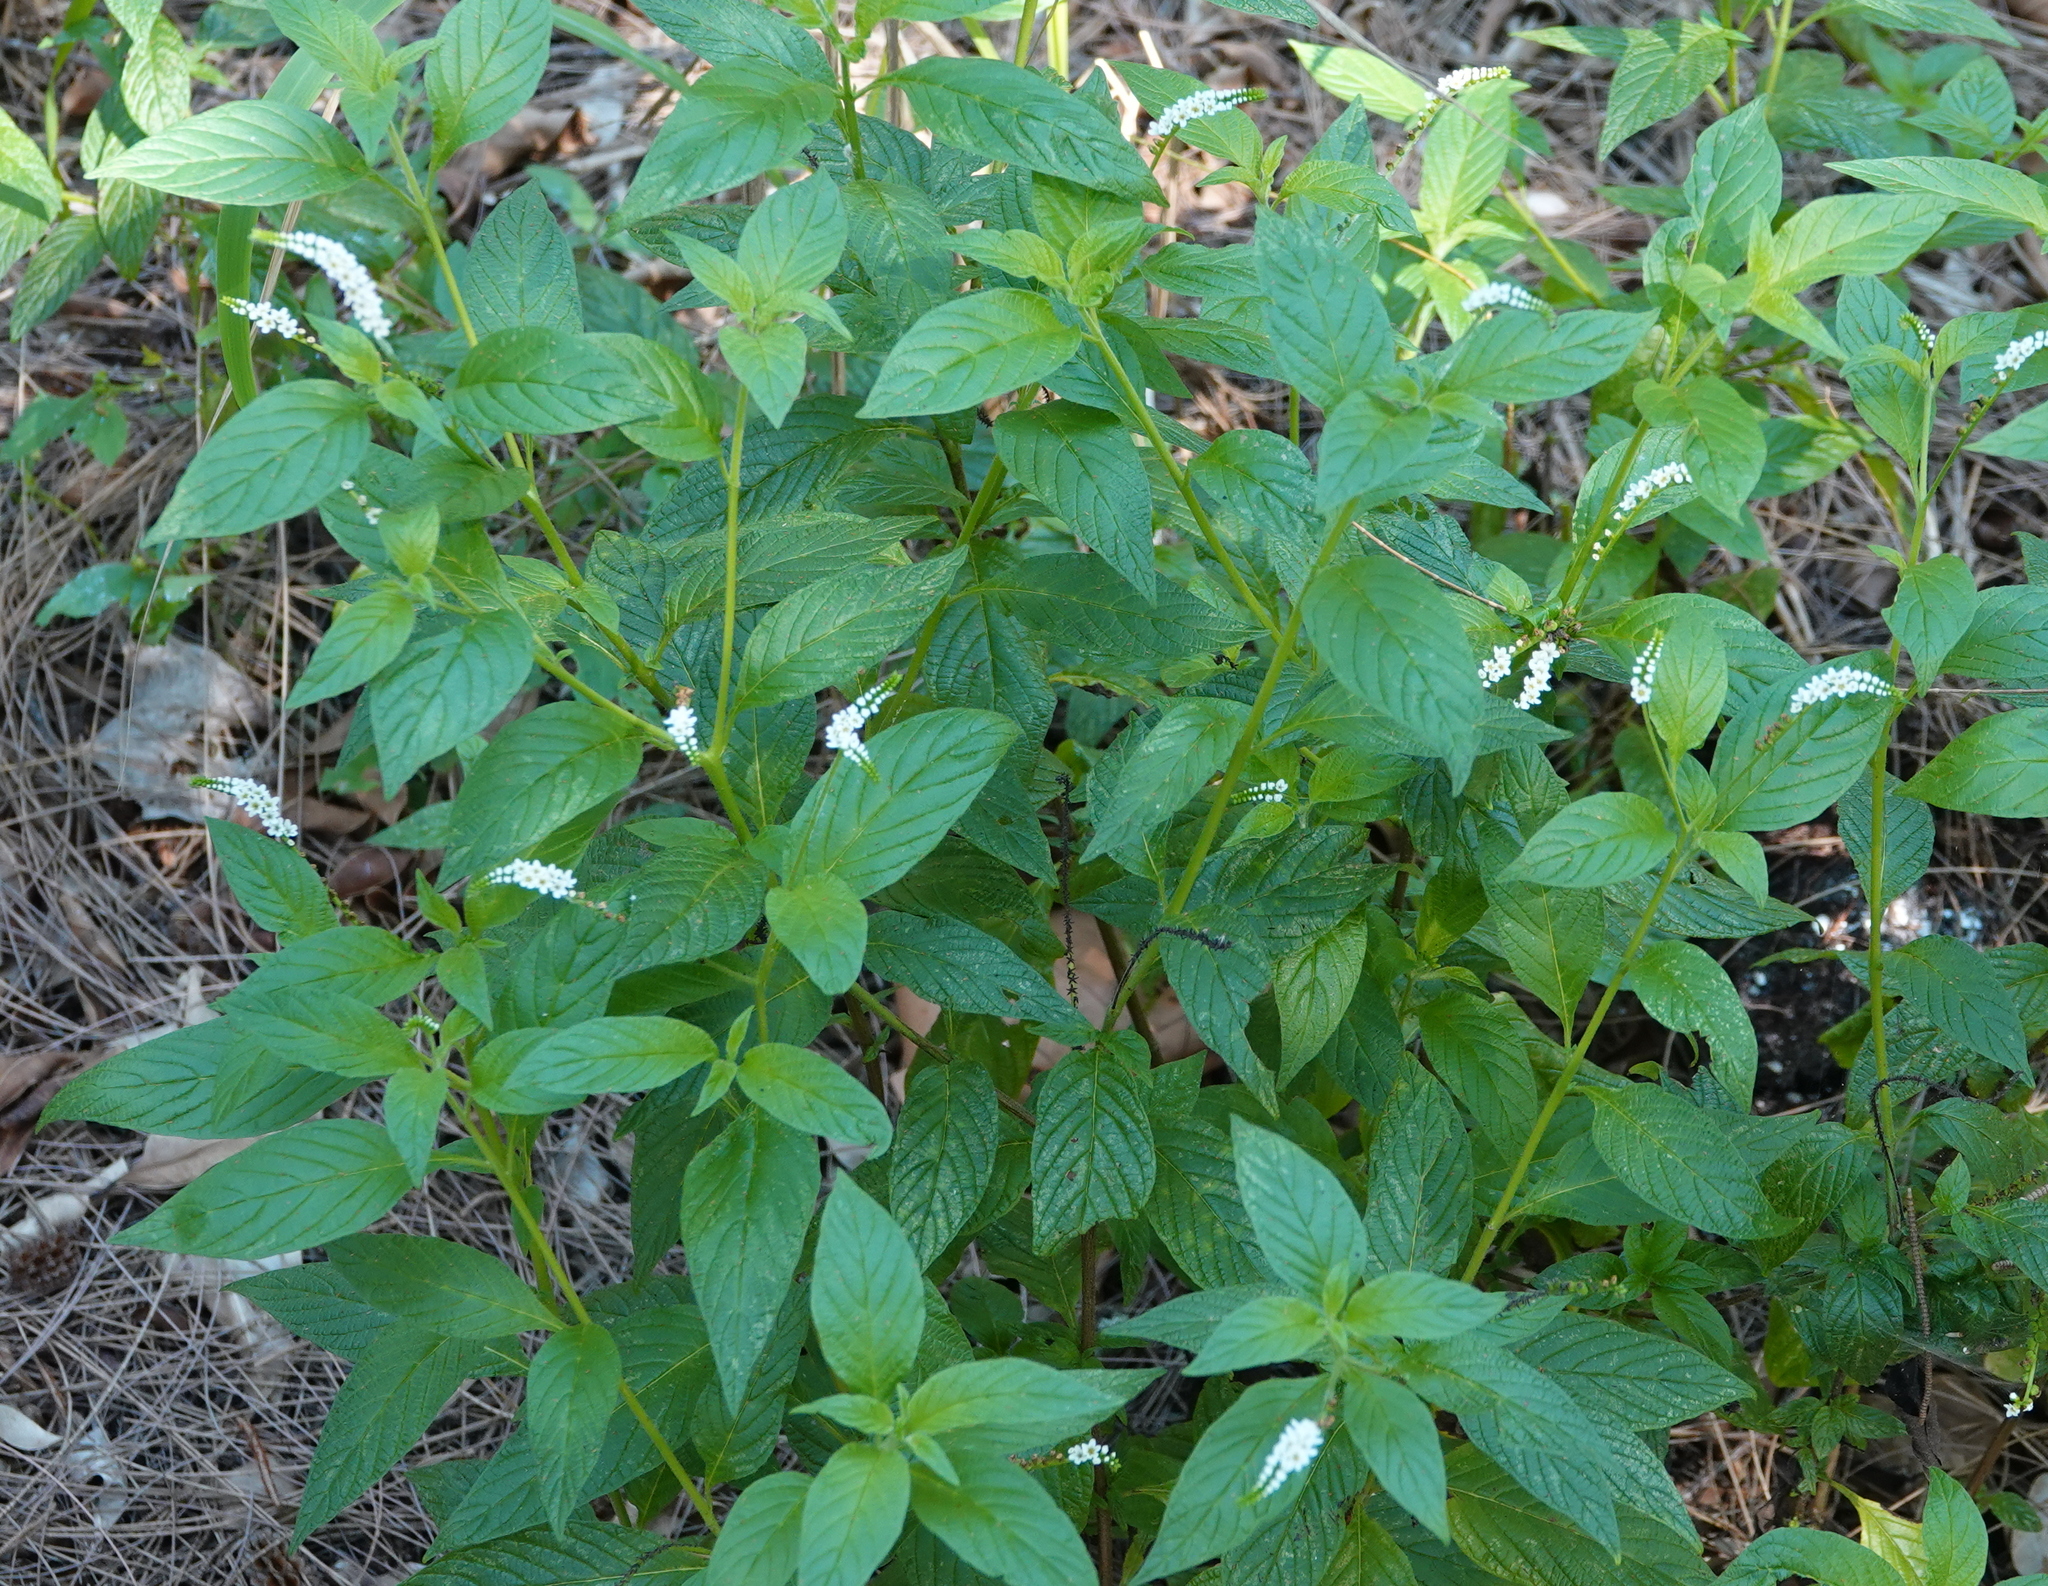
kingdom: Plantae
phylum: Tracheophyta
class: Magnoliopsida
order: Boraginales
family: Heliotropiaceae
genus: Heliotropium
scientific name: Heliotropium angiospermum
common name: Eye bright
